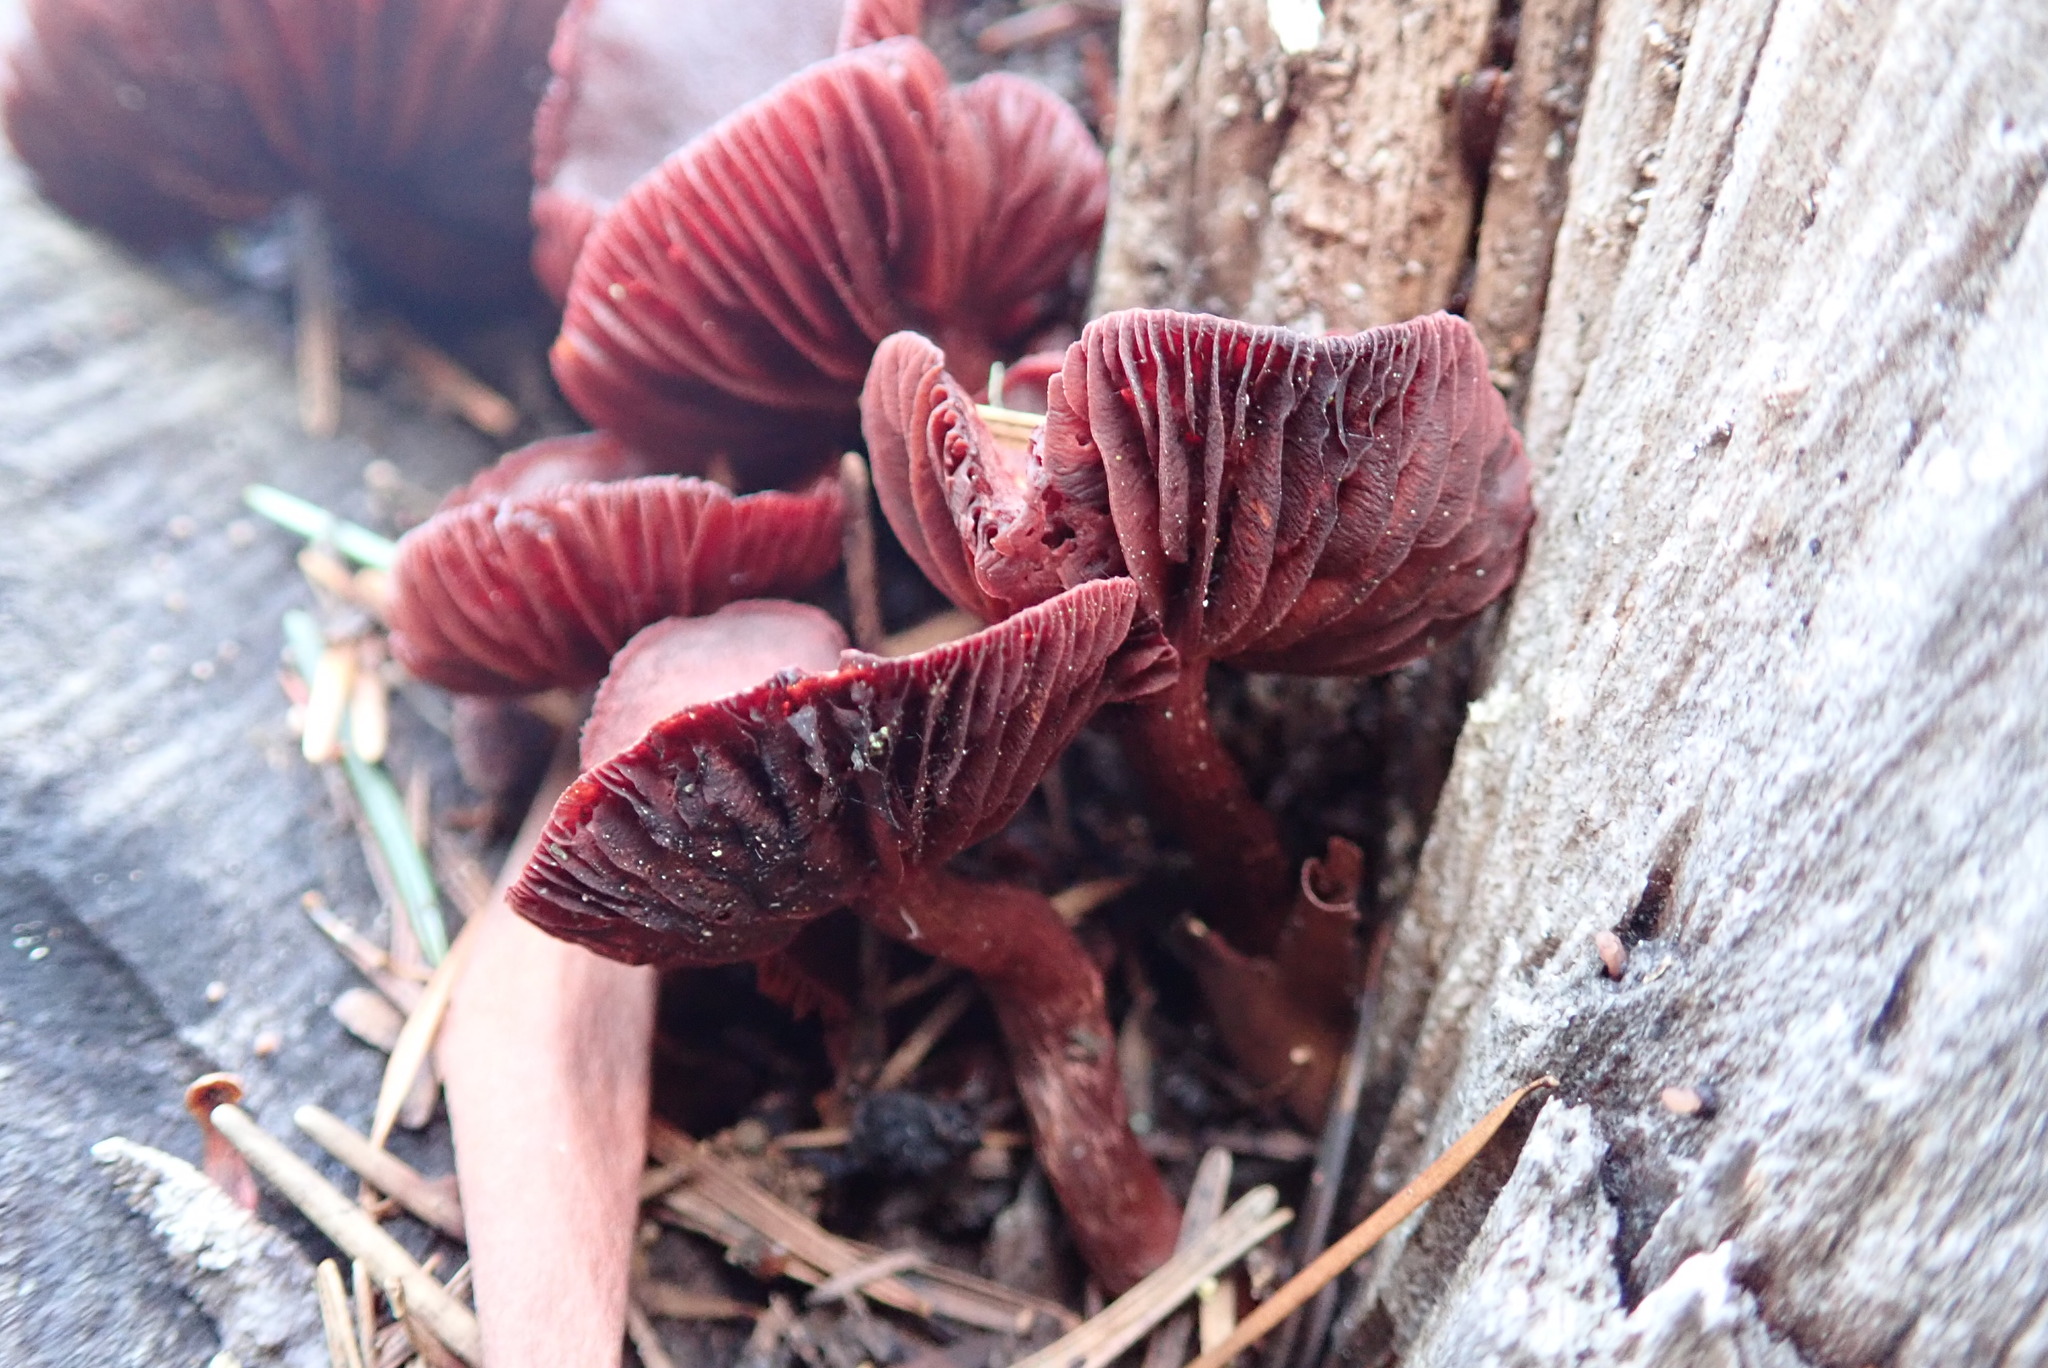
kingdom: Fungi
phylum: Basidiomycota
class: Agaricomycetes
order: Agaricales
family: Tubariaceae
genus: Tubaria
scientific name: Tubaria punicea
